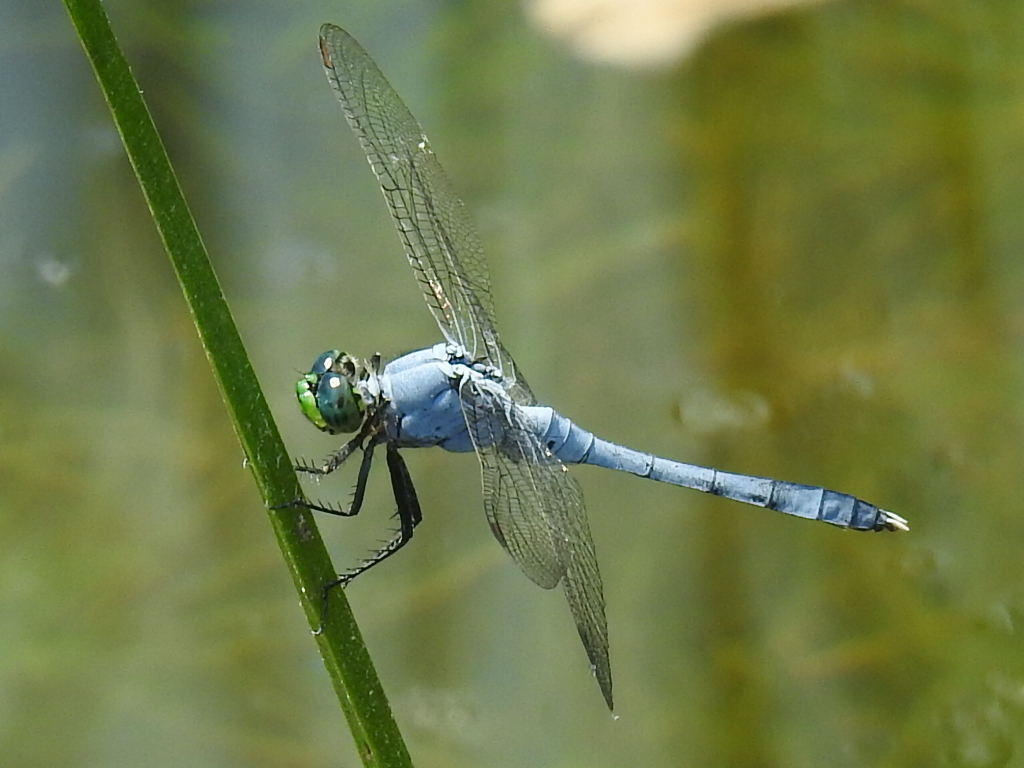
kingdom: Animalia
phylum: Arthropoda
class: Insecta
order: Odonata
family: Libellulidae
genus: Erythemis
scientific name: Erythemis simplicicollis
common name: Eastern pondhawk
